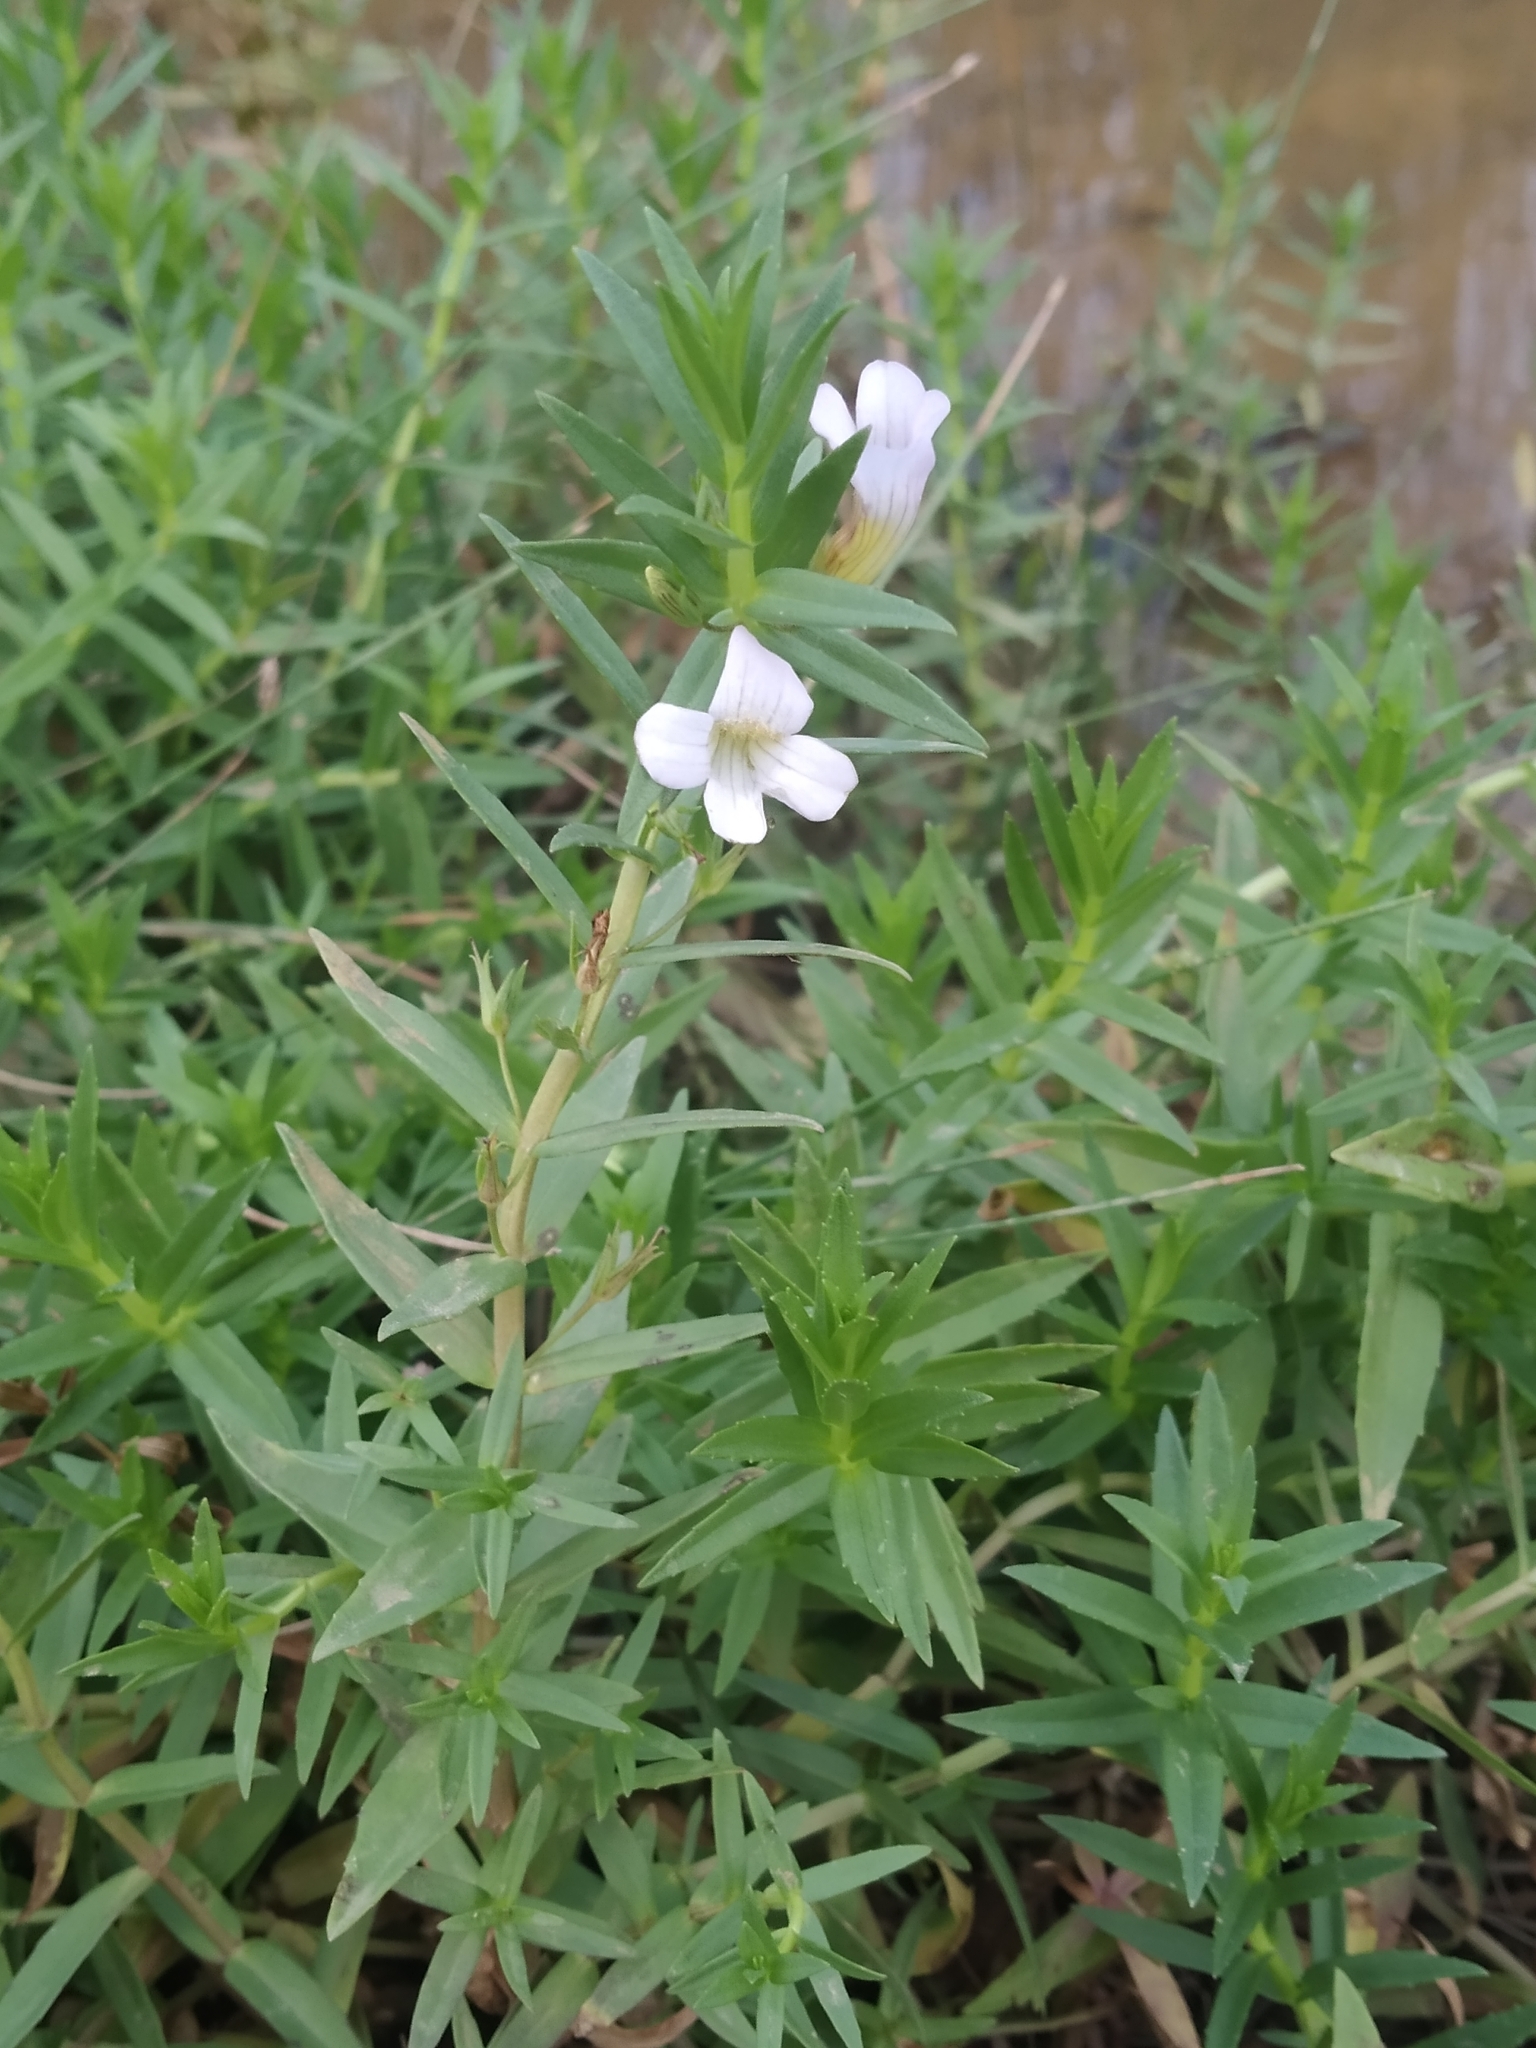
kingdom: Plantae
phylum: Tracheophyta
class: Magnoliopsida
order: Lamiales
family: Plantaginaceae
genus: Gratiola
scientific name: Gratiola officinalis
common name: Gratiola
